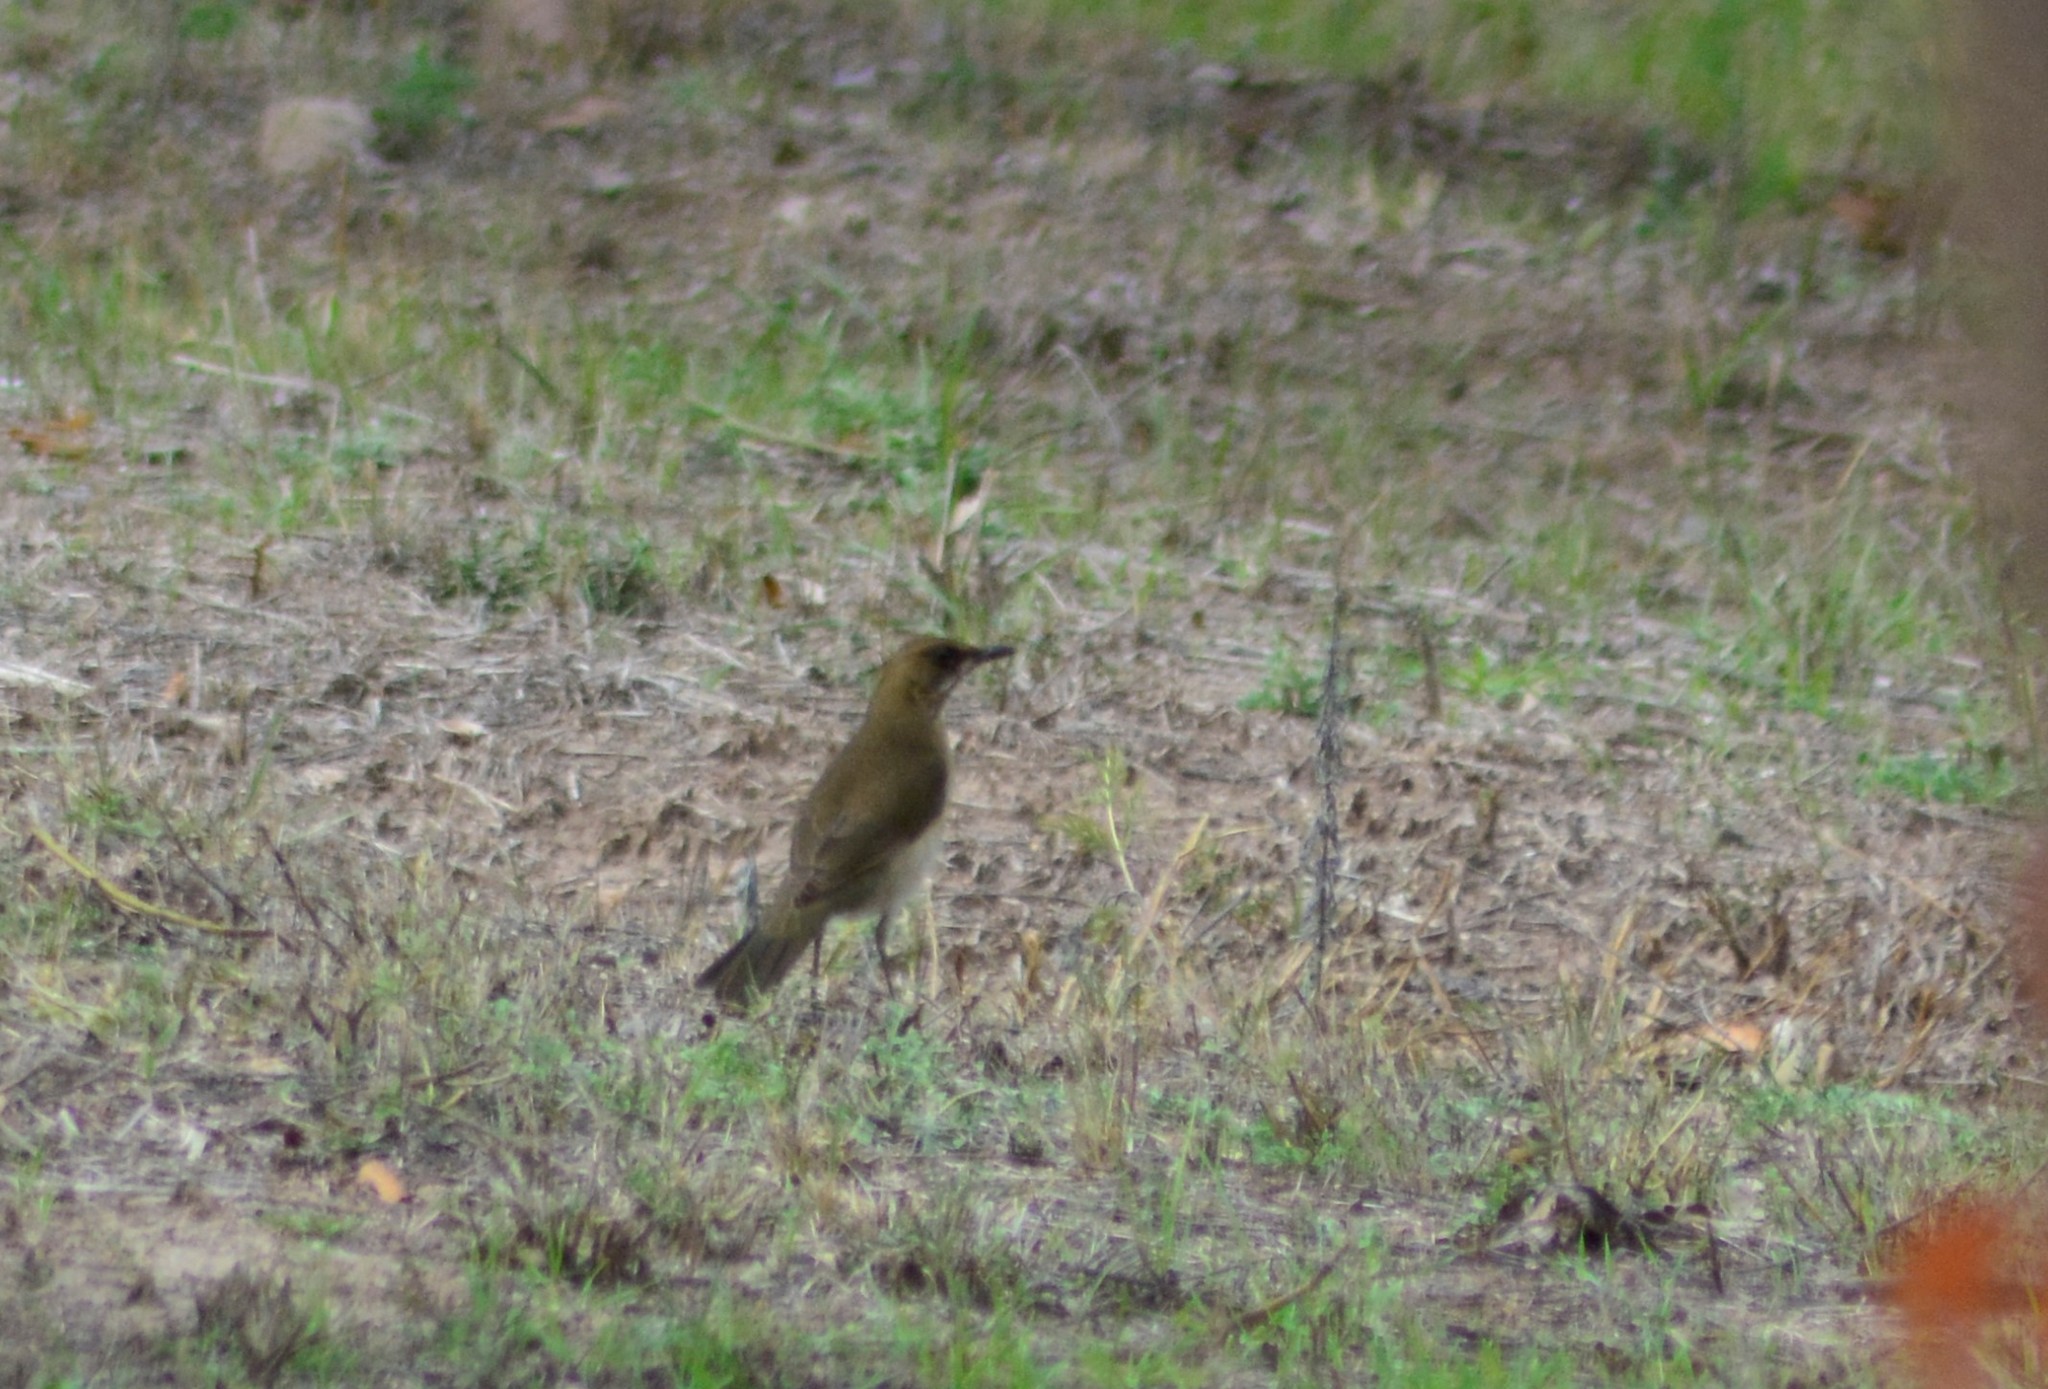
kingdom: Animalia
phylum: Chordata
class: Aves
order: Passeriformes
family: Turdidae
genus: Turdus
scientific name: Turdus amaurochalinus
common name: Creamy-bellied thrush
